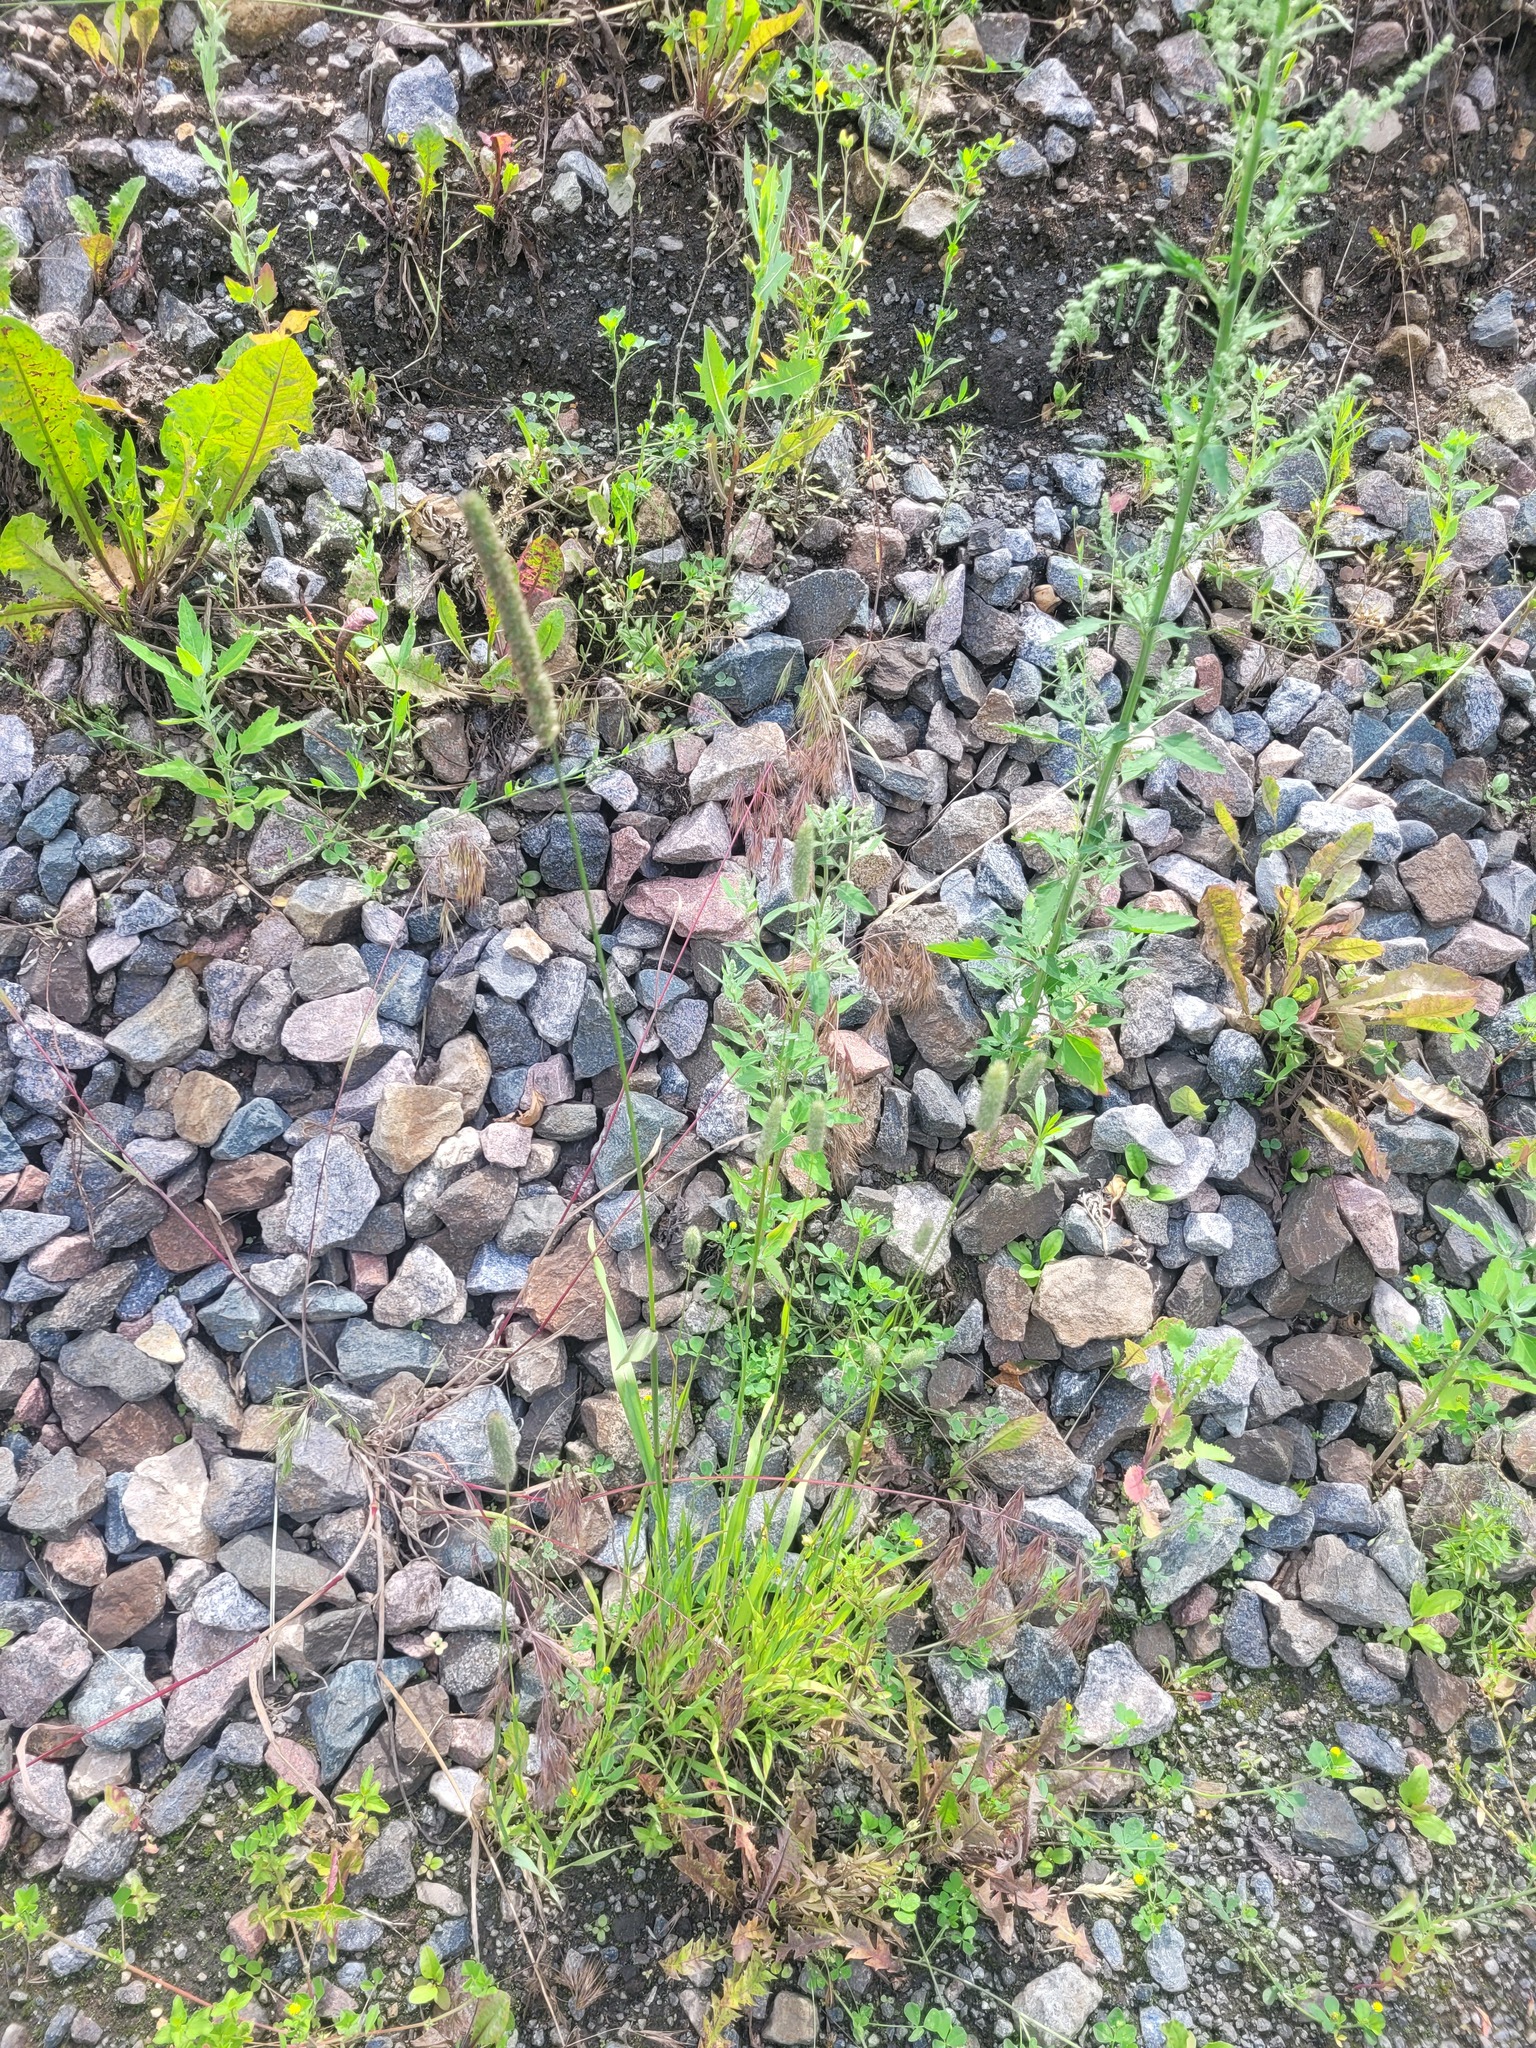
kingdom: Plantae
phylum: Tracheophyta
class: Liliopsida
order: Poales
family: Poaceae
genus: Phleum
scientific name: Phleum pratense
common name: Timothy grass
